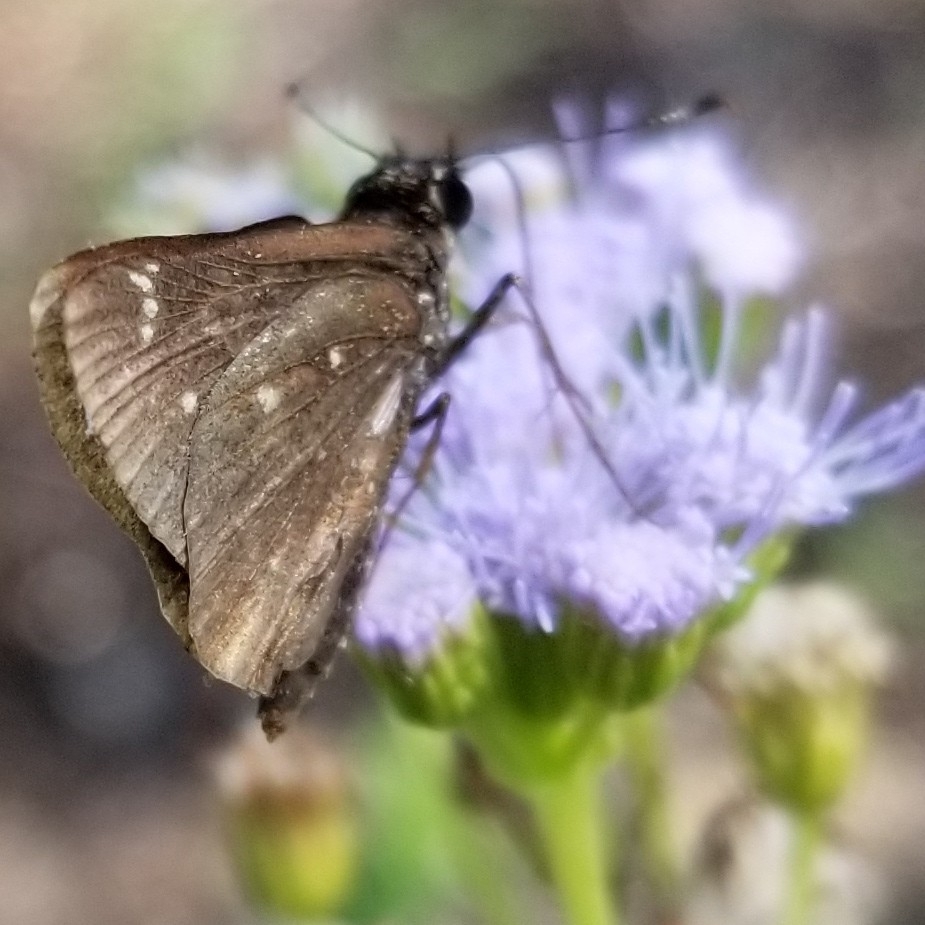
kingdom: Animalia
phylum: Arthropoda
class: Insecta
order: Lepidoptera
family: Hesperiidae
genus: Mastor
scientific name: Mastor celia
